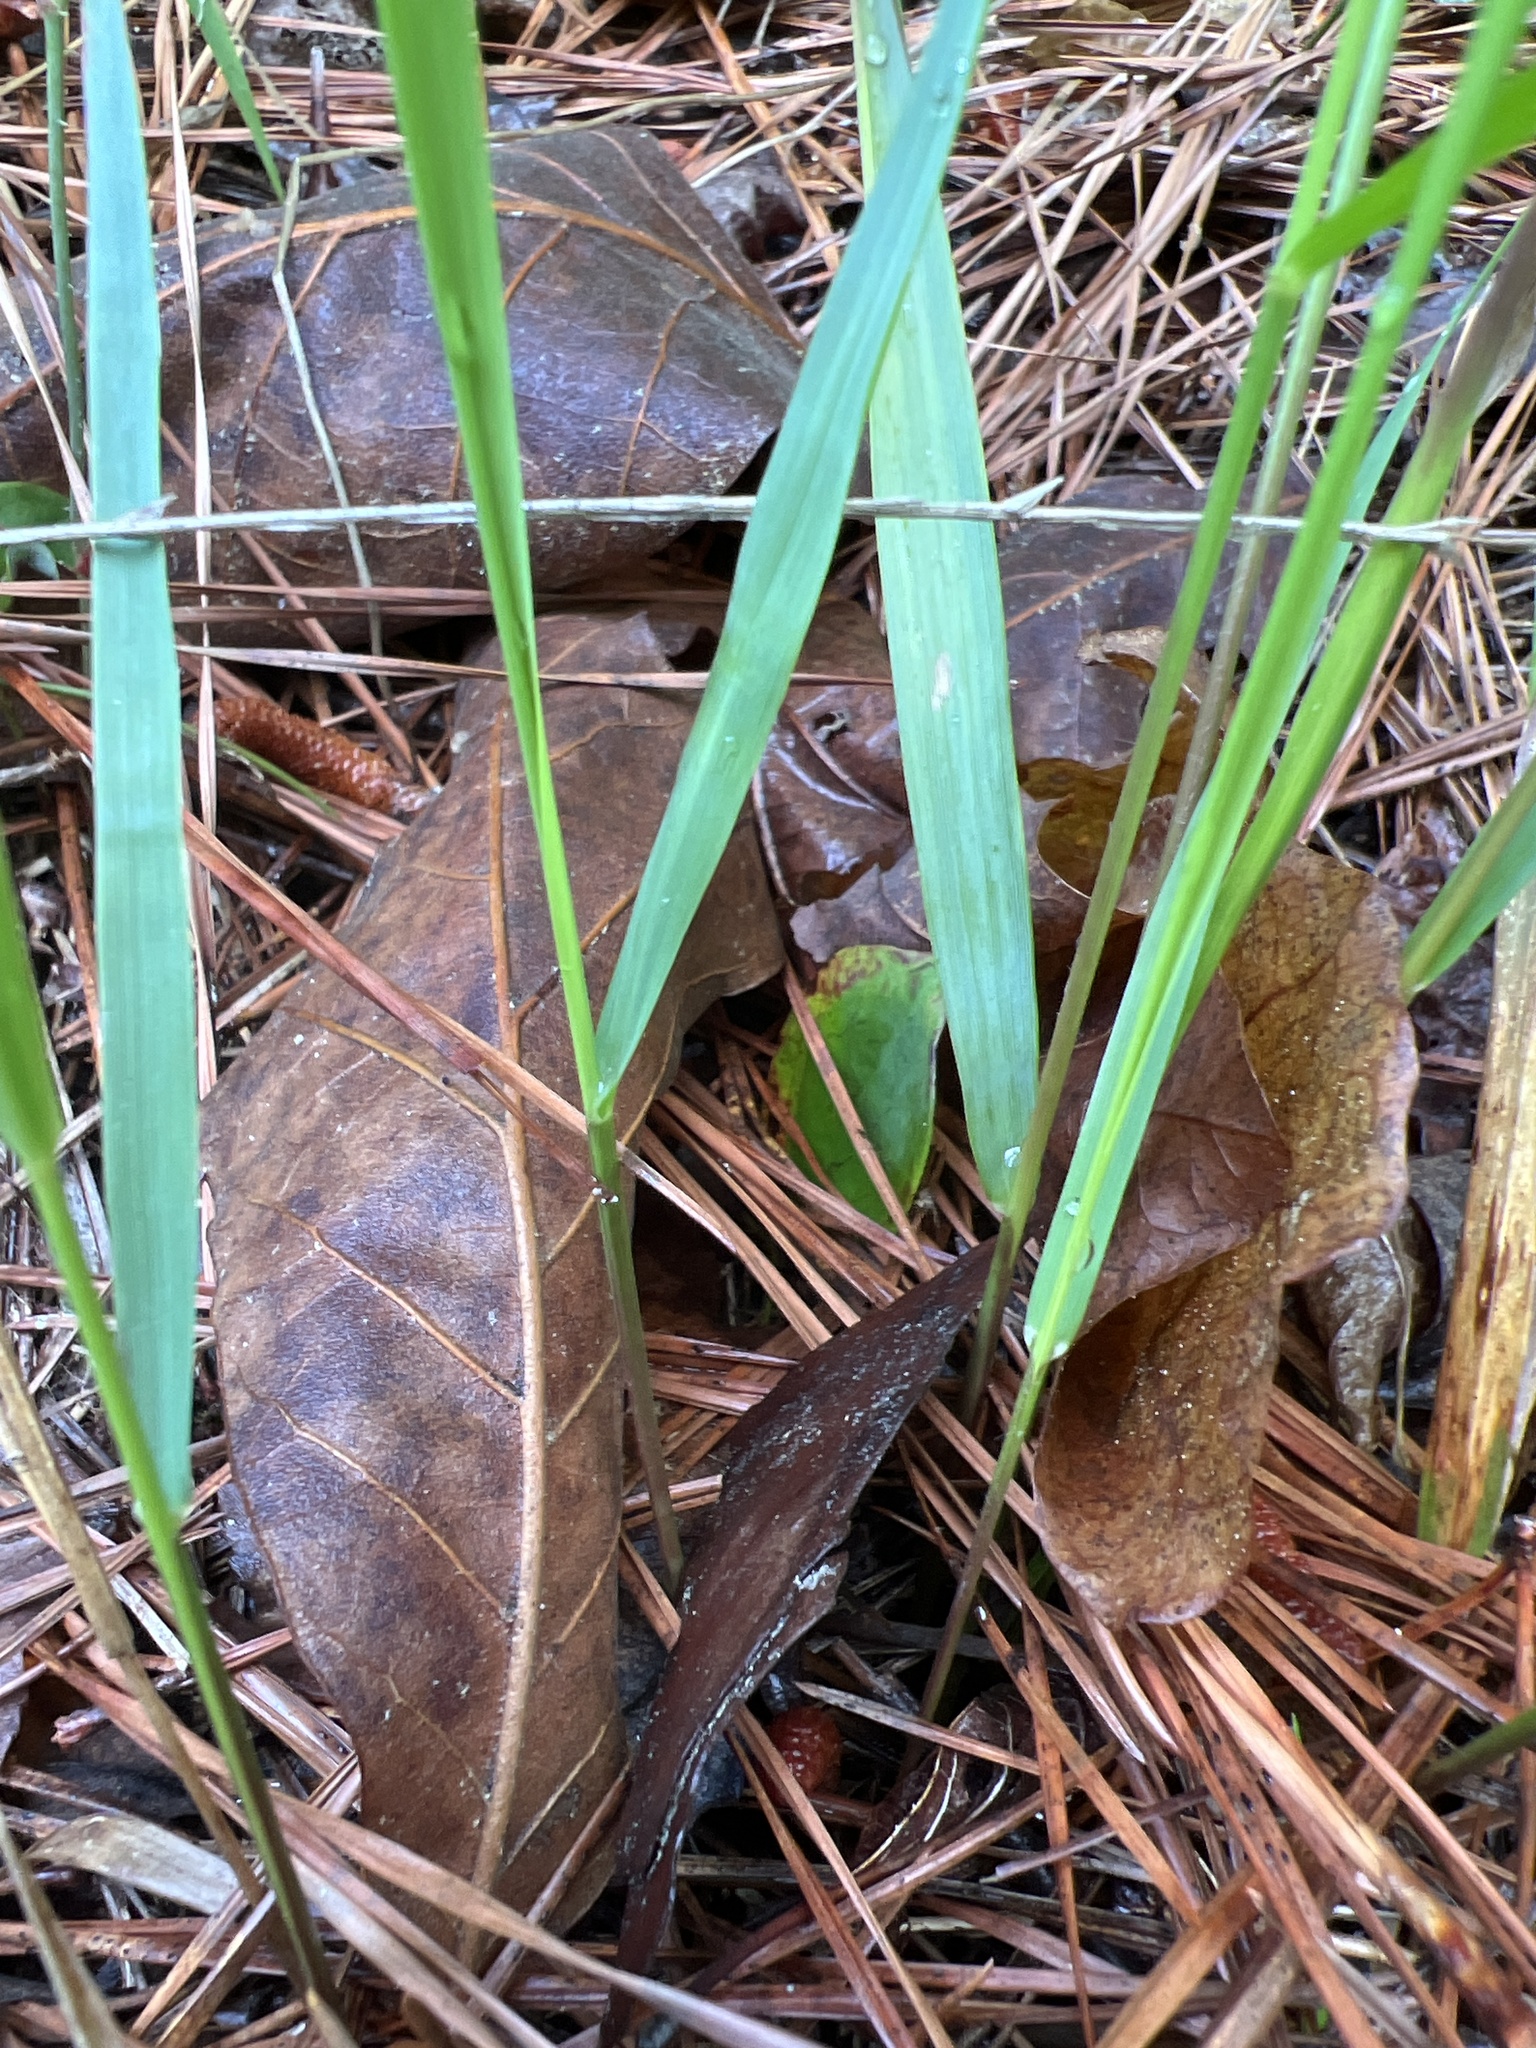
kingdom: Plantae
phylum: Tracheophyta
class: Liliopsida
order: Poales
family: Poaceae
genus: Chasmanthium
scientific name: Chasmanthium laxum
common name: Slender chasmanthium
